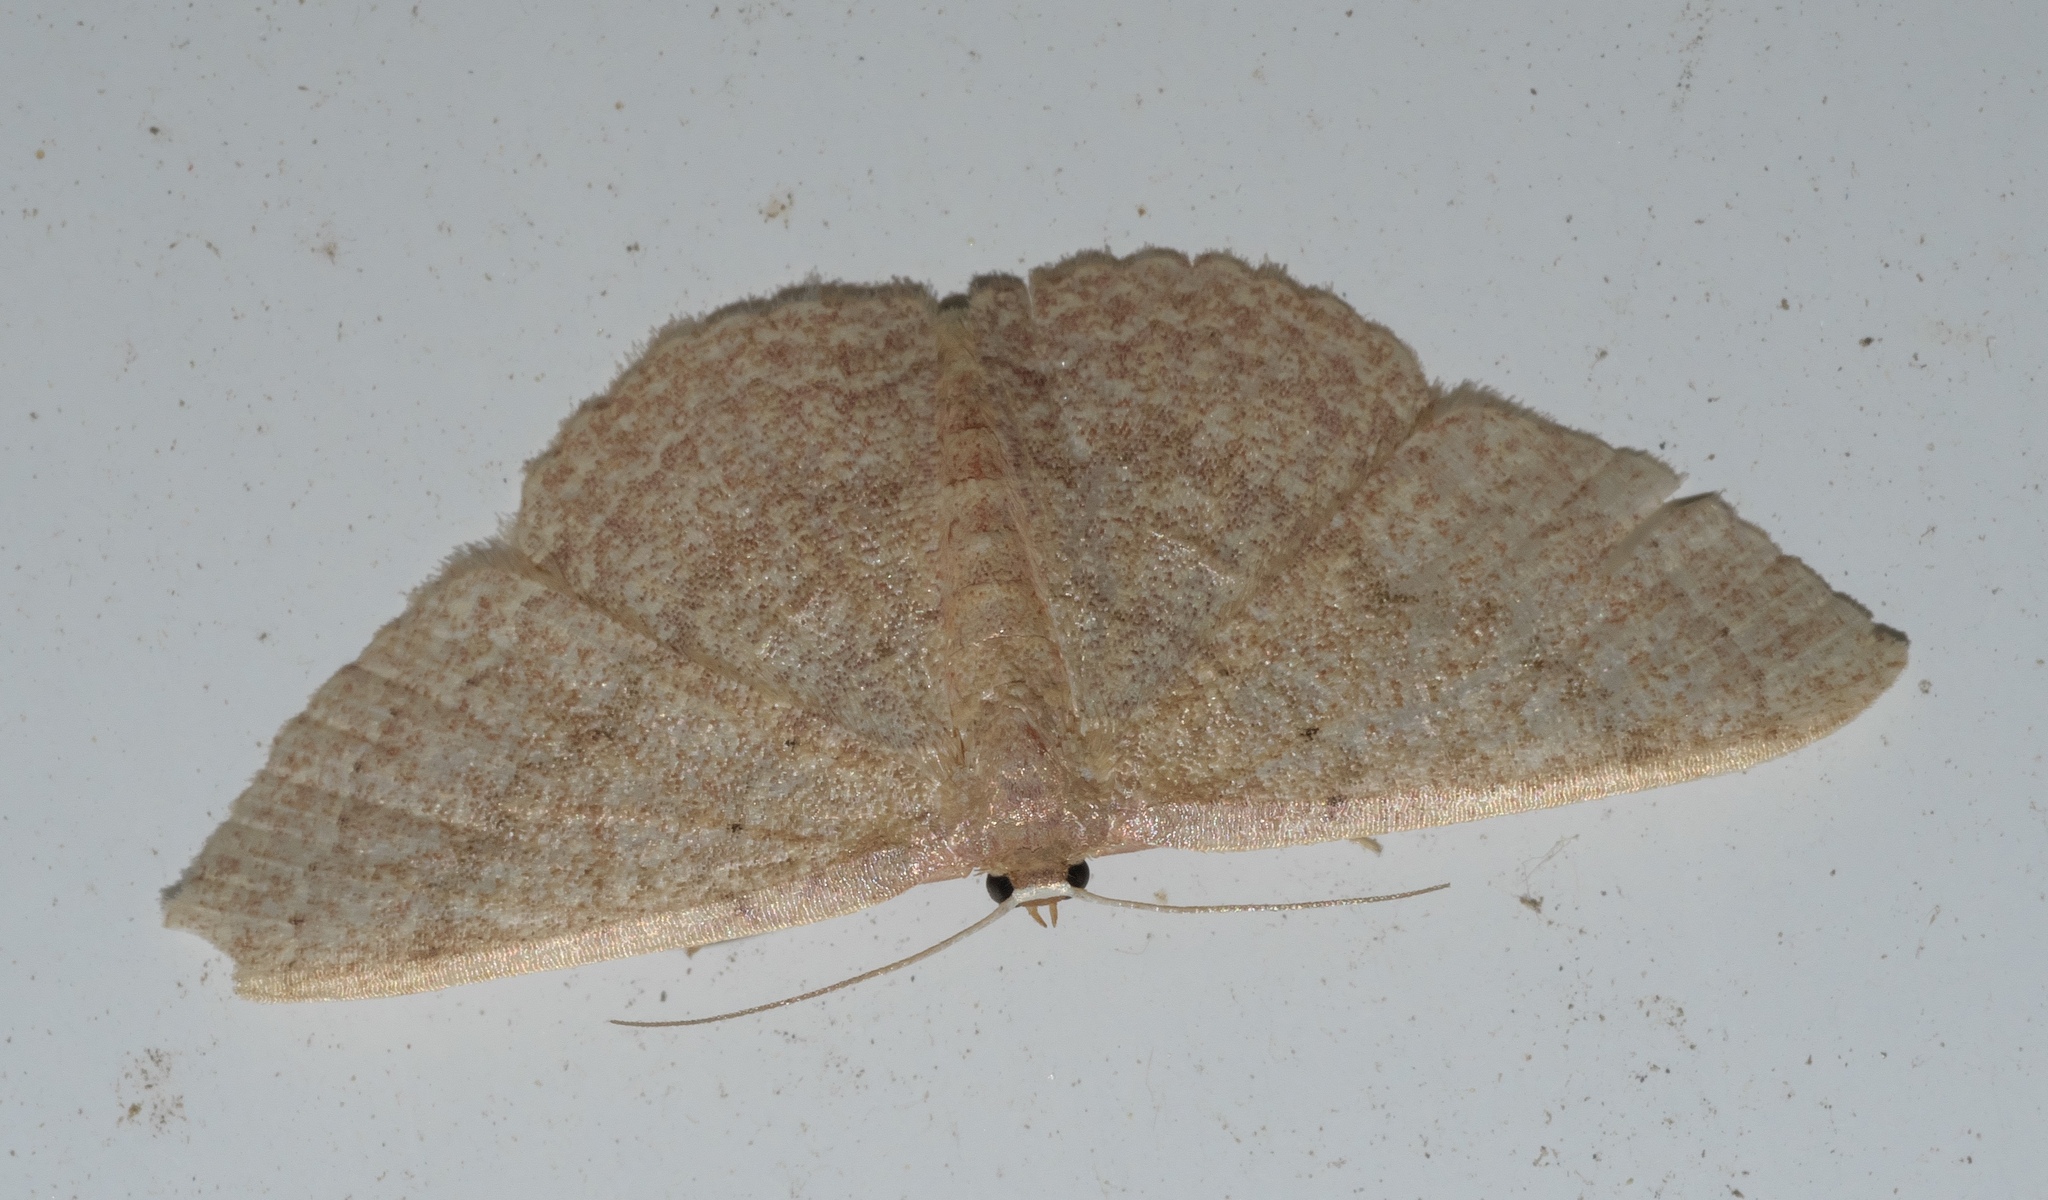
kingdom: Animalia
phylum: Arthropoda
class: Insecta
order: Lepidoptera
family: Geometridae
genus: Pleuroprucha
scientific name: Pleuroprucha insulsaria
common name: Common tan wave
